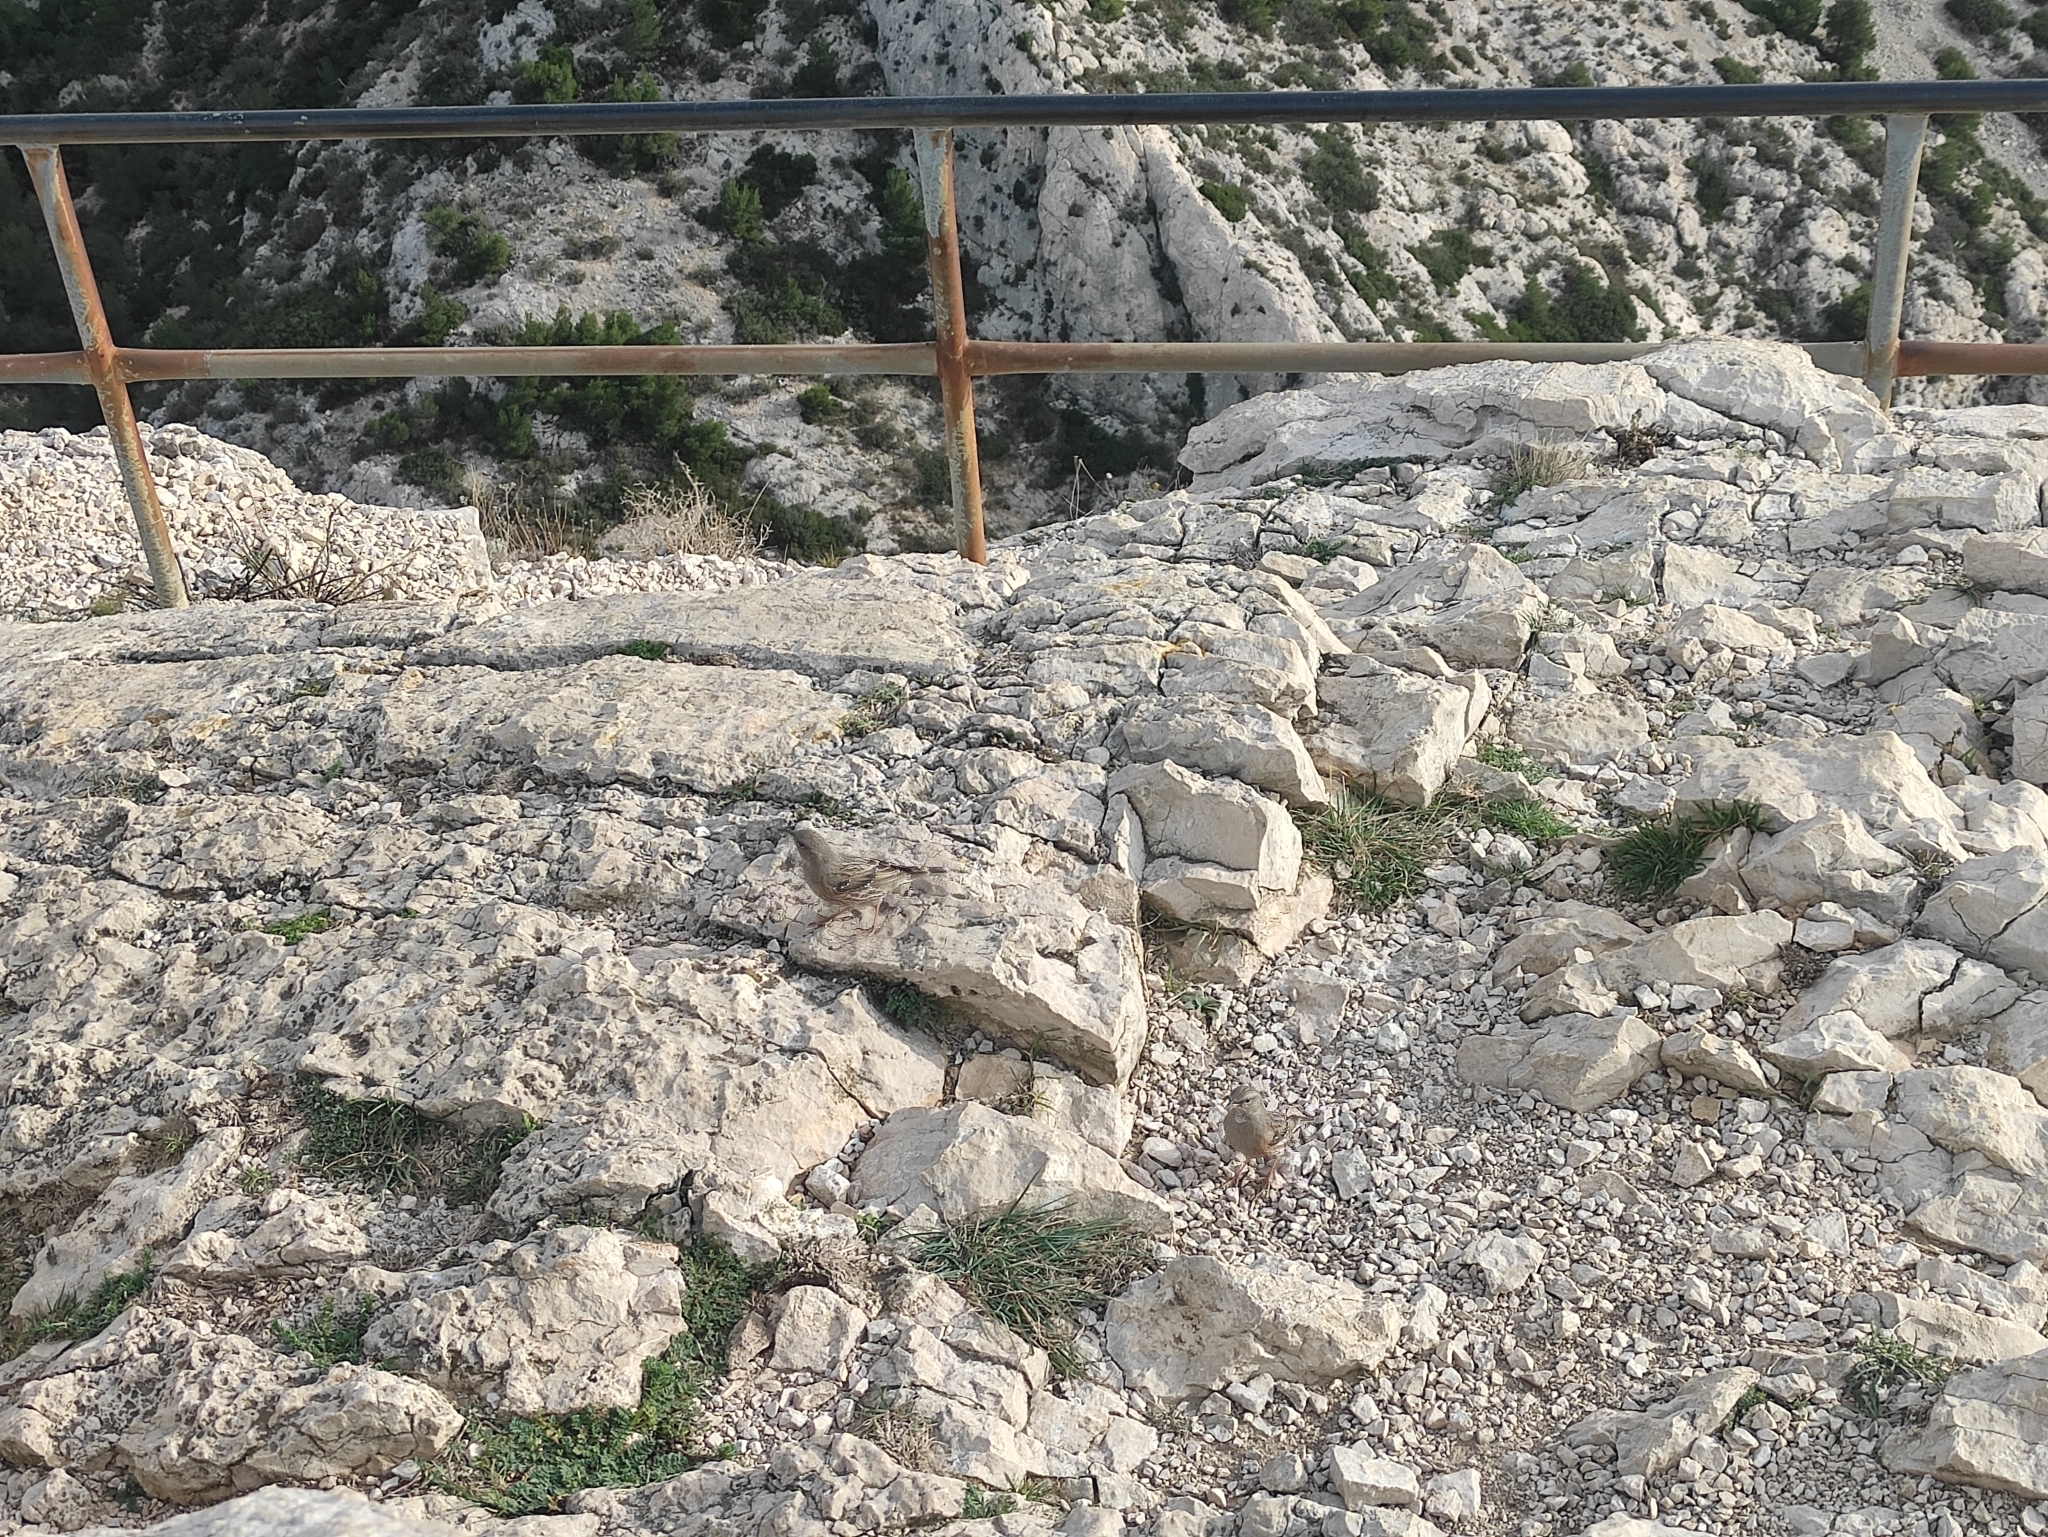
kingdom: Animalia
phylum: Chordata
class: Aves
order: Passeriformes
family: Prunellidae
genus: Prunella
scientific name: Prunella collaris
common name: Alpine accentor
